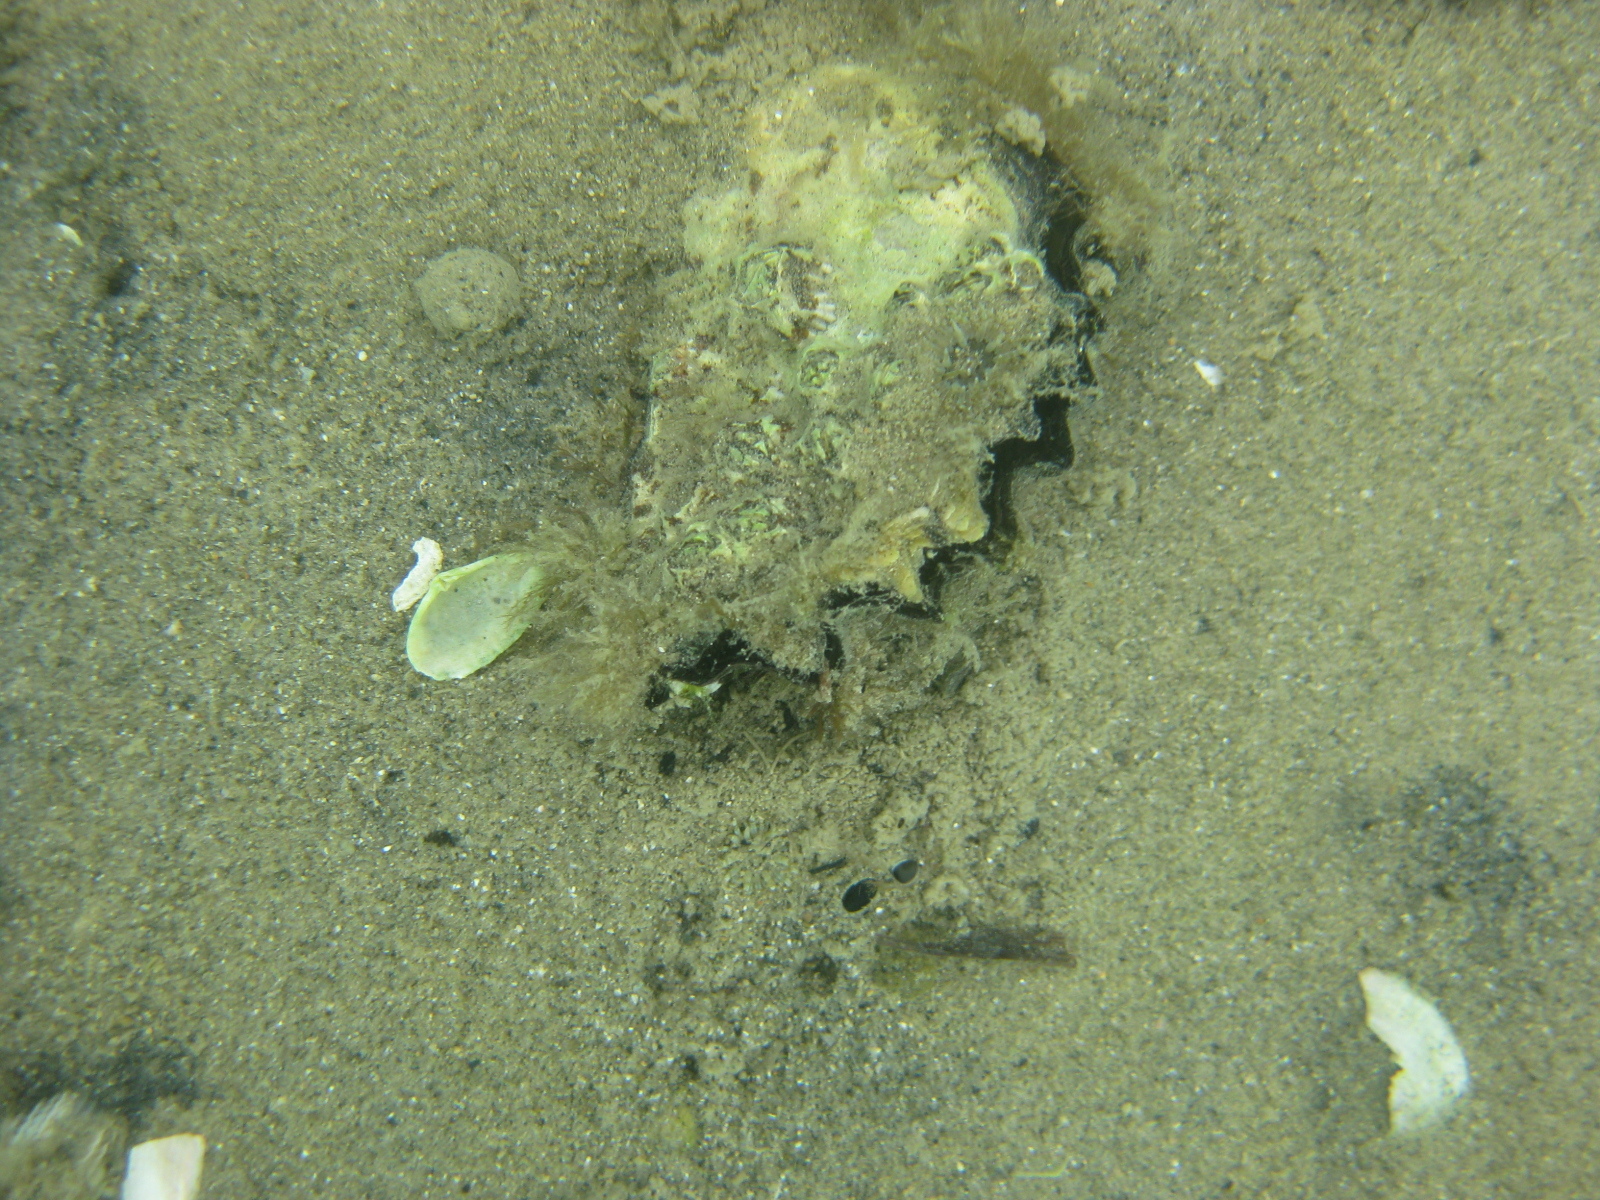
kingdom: Animalia
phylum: Mollusca
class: Bivalvia
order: Ostreida
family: Ostreidae
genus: Saccostrea
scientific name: Saccostrea glomerata
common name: Sydney cupped oyster
